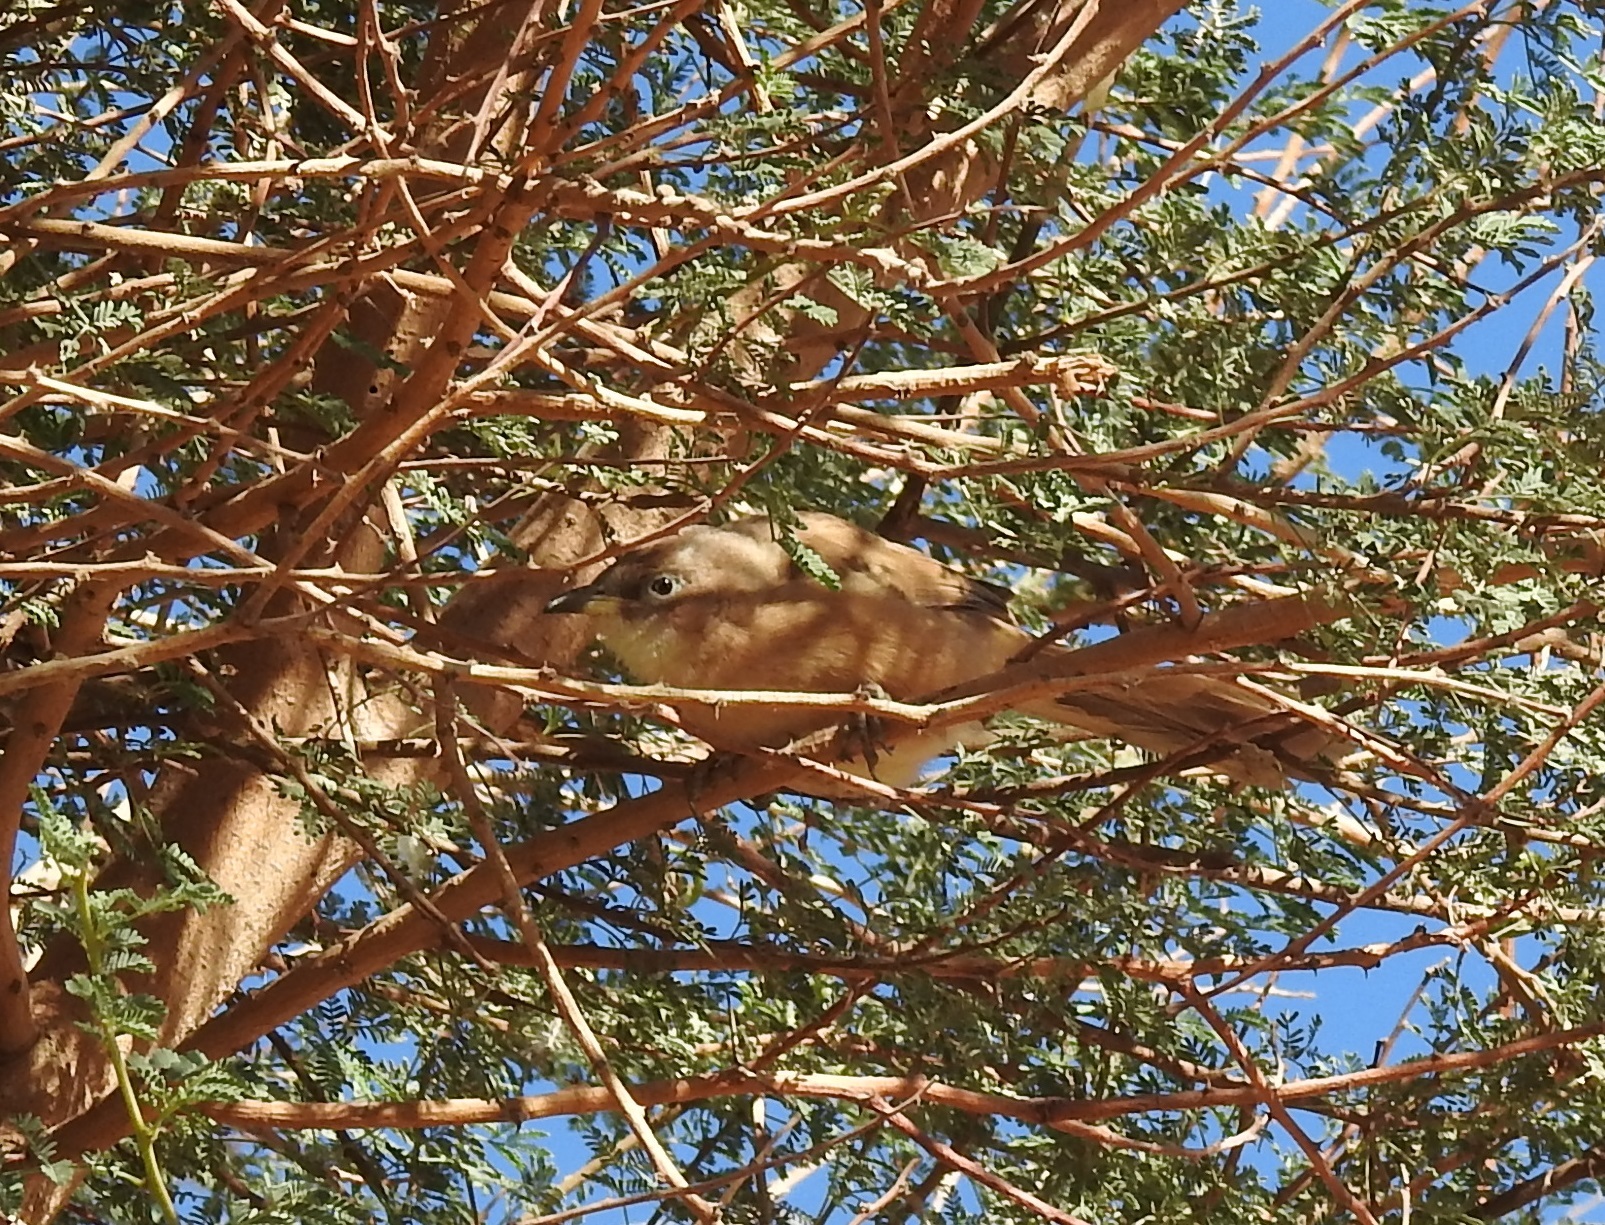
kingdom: Animalia
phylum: Chordata
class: Aves
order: Passeriformes
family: Leiothrichidae
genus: Turdoides
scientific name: Turdoides fulva
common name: Fulvous babbler
